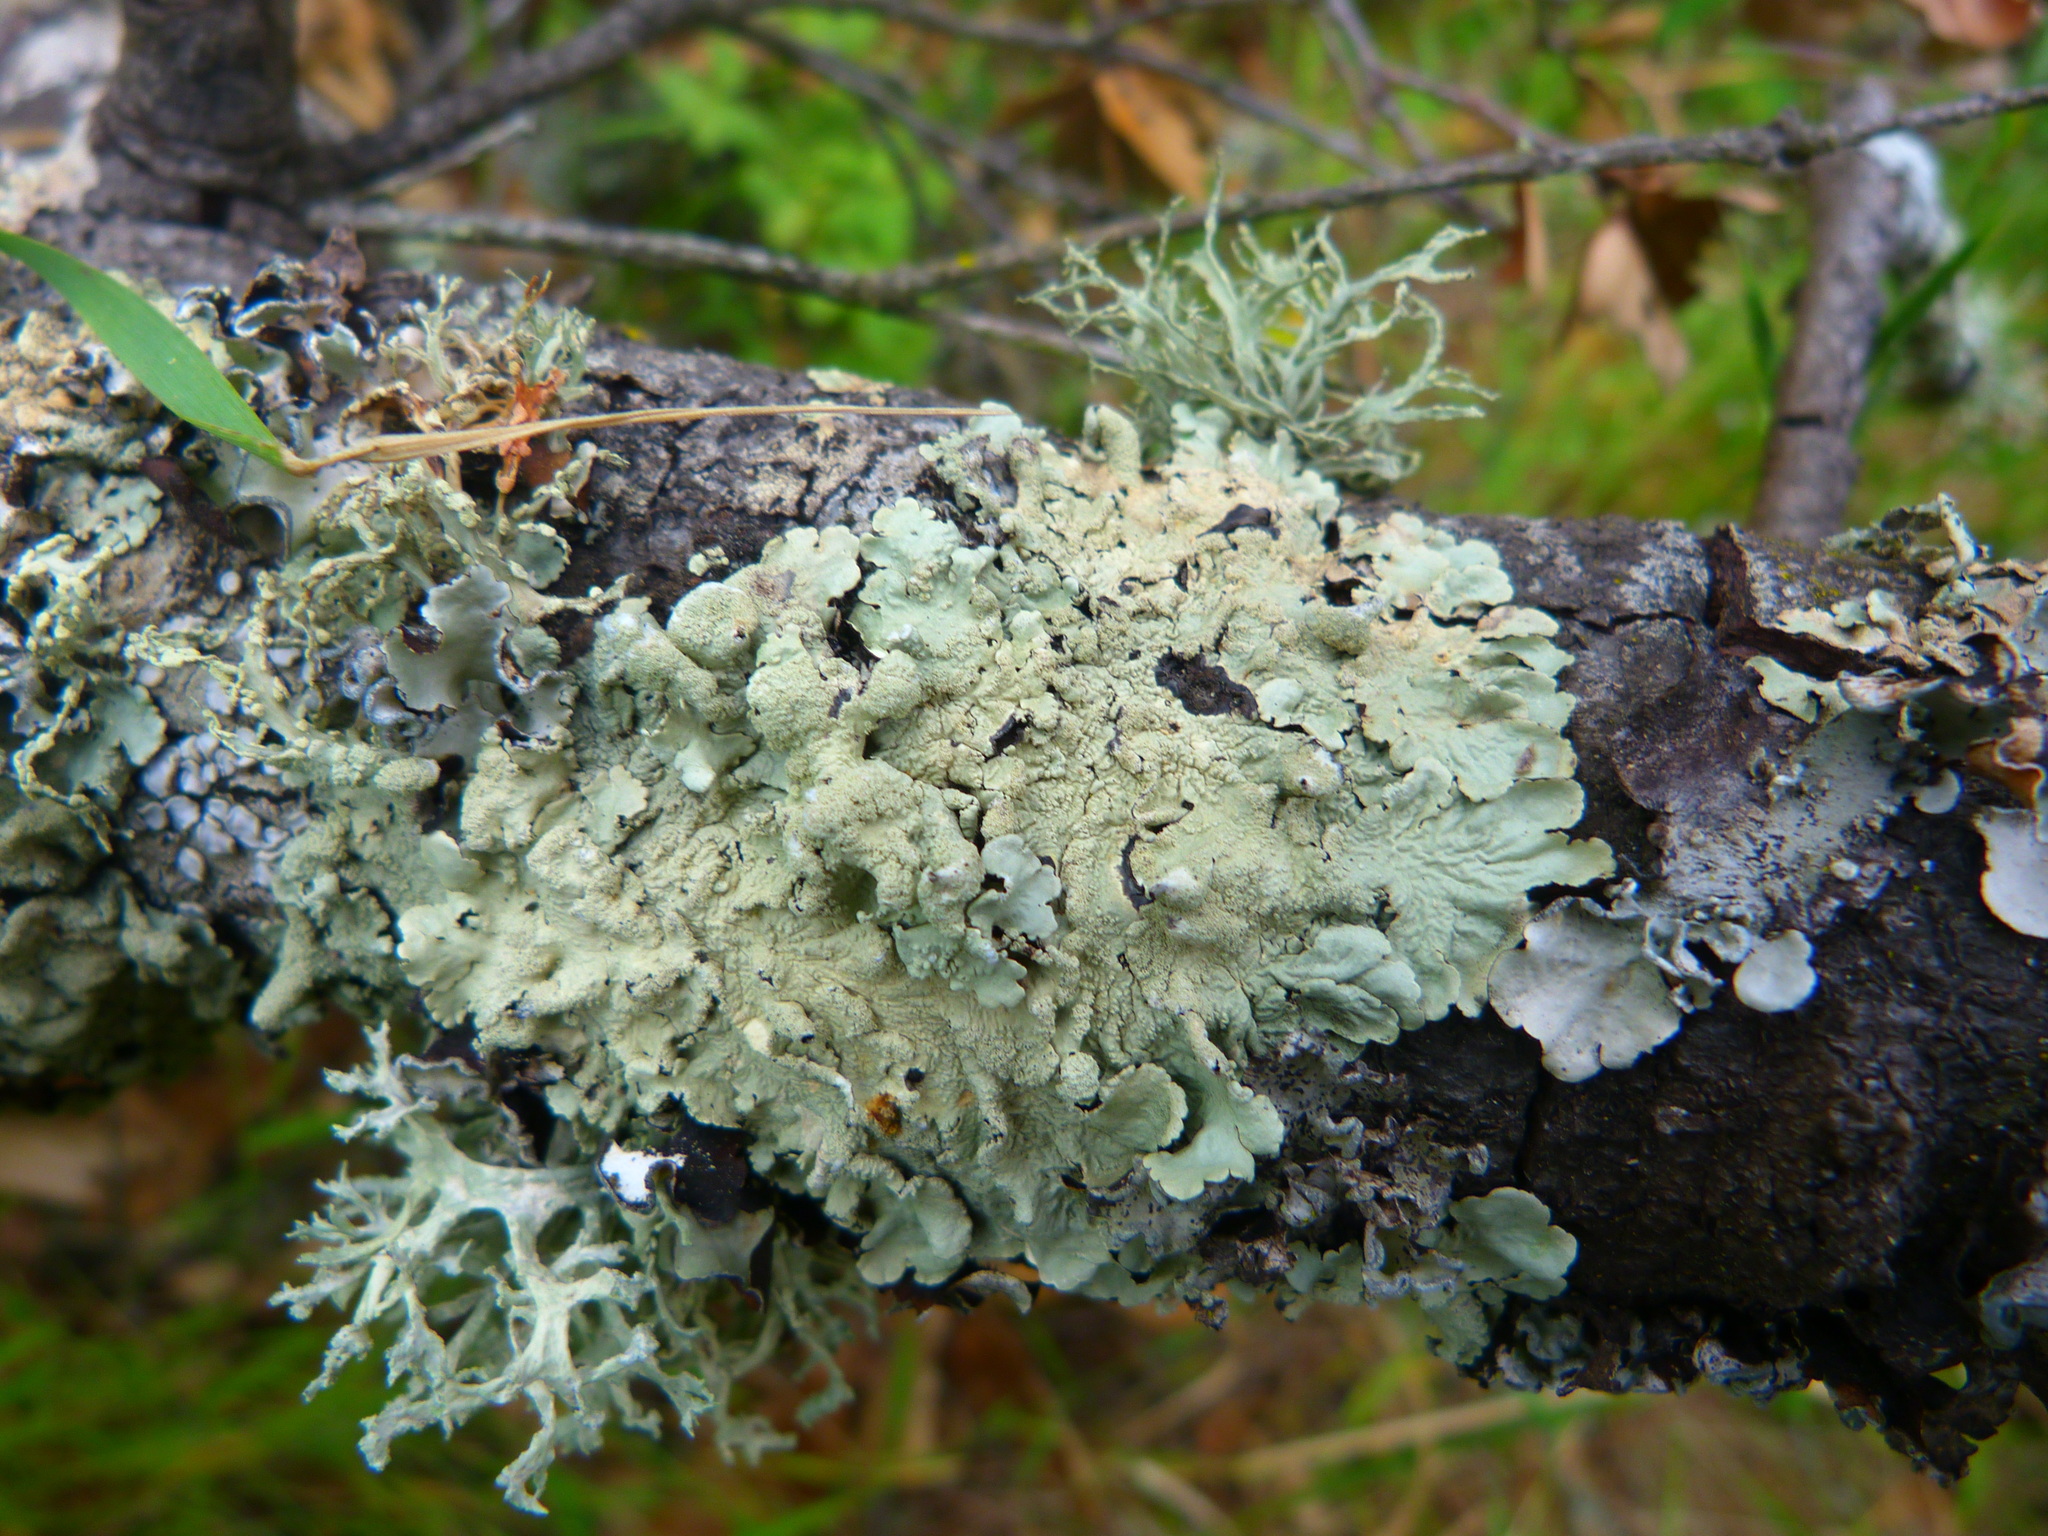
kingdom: Fungi
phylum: Ascomycota
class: Lecanoromycetes
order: Lecanorales
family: Parmeliaceae
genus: Flavoparmelia
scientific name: Flavoparmelia caperata
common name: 40-mile per hour lichen
